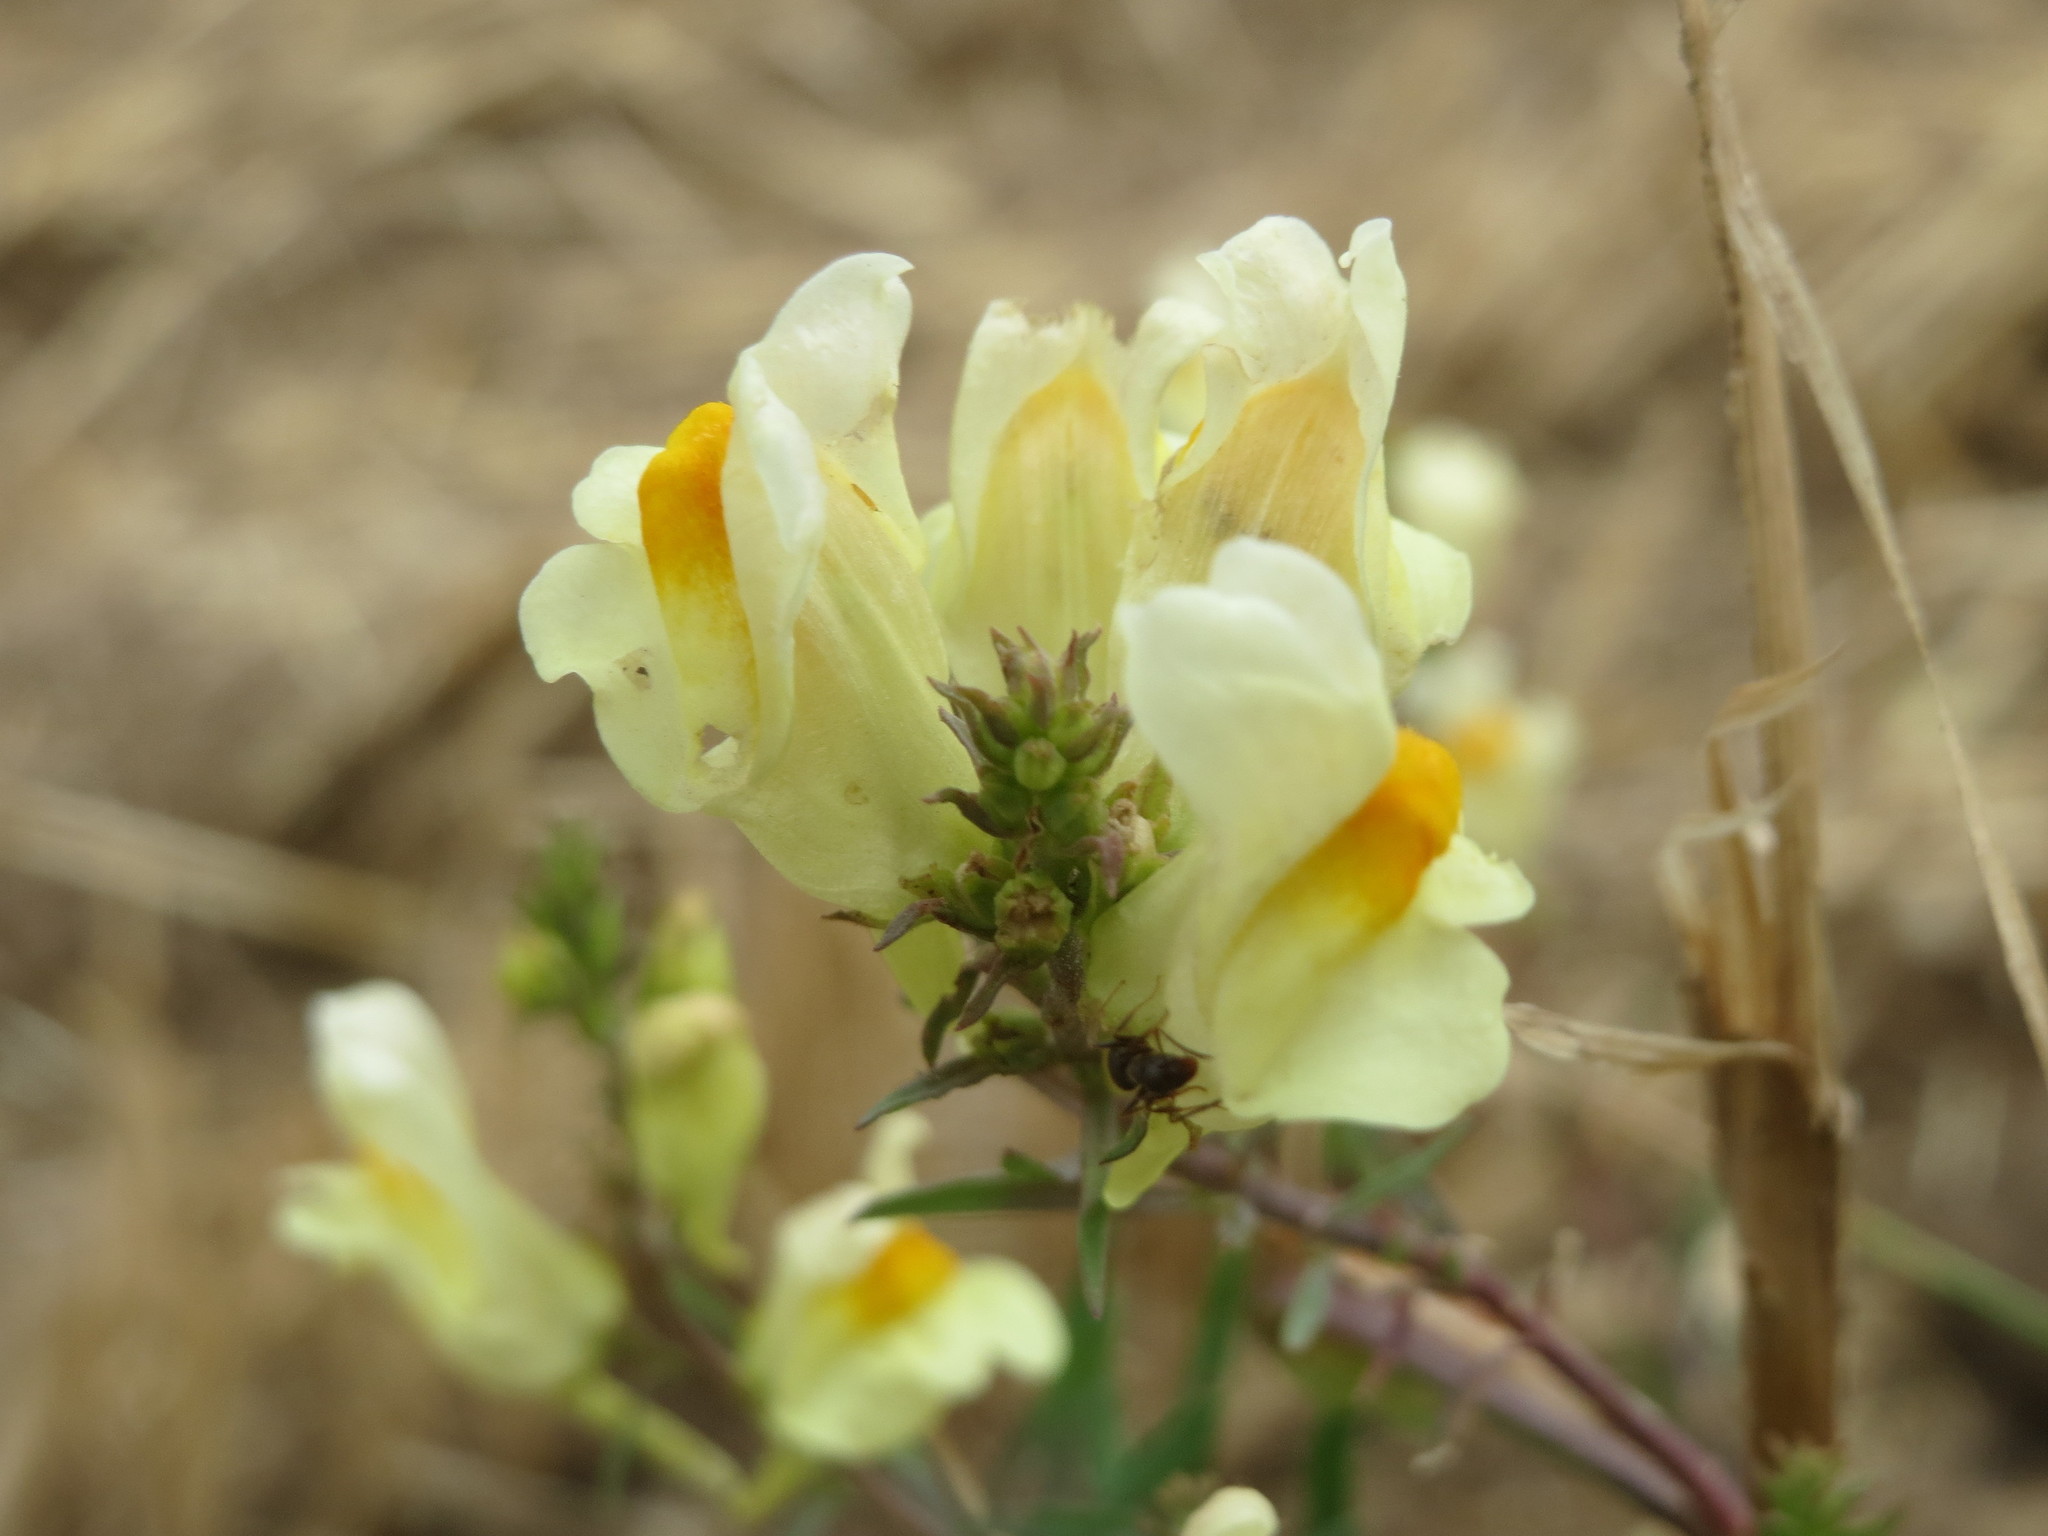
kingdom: Plantae
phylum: Tracheophyta
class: Magnoliopsida
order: Lamiales
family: Plantaginaceae
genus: Linaria
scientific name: Linaria vulgaris
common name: Butter and eggs
